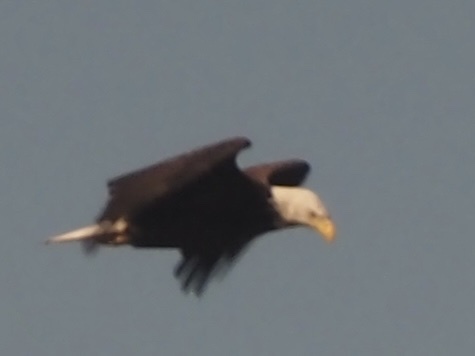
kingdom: Animalia
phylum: Chordata
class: Aves
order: Accipitriformes
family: Accipitridae
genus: Haliaeetus
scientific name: Haliaeetus leucocephalus
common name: Bald eagle
